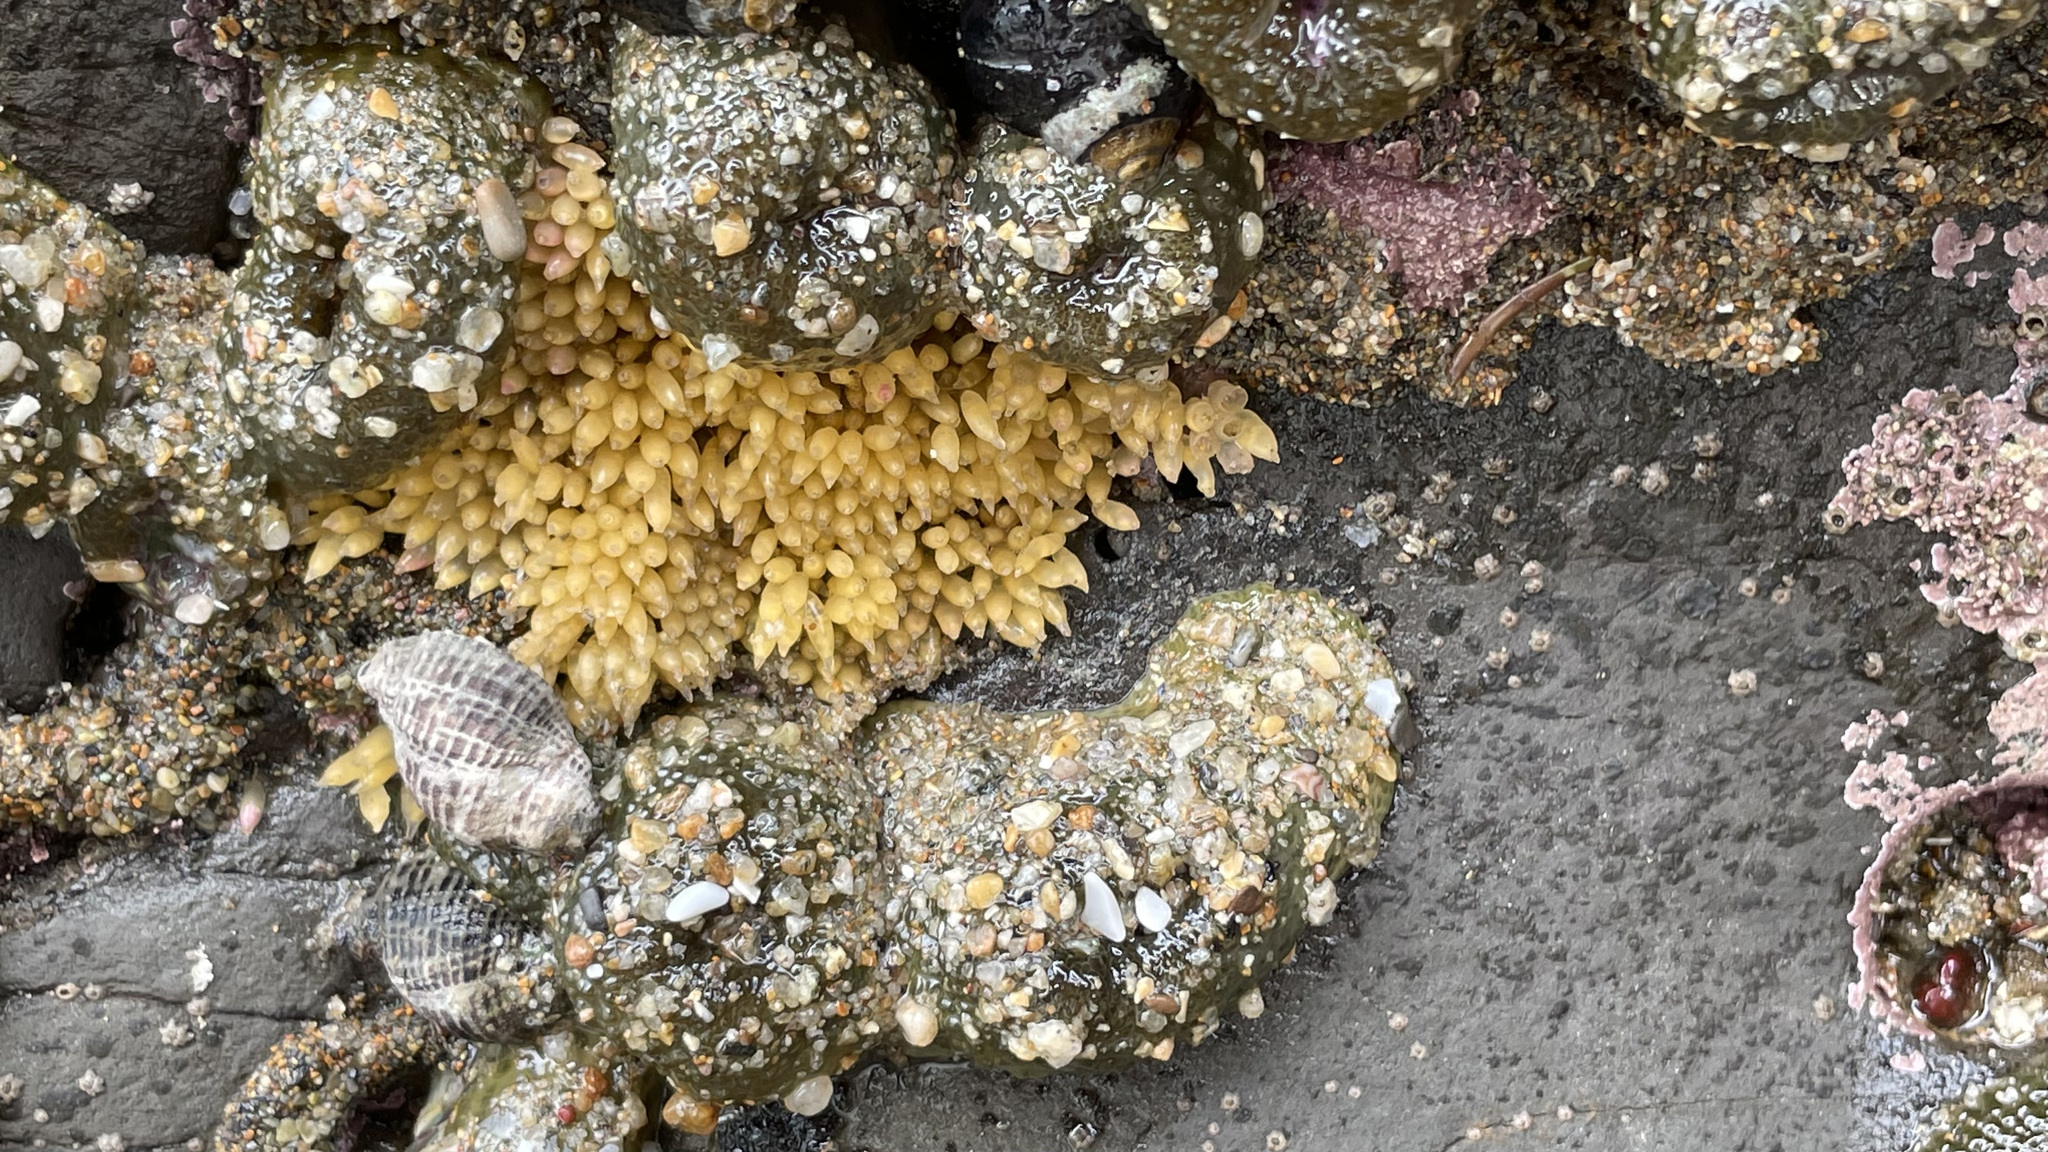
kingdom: Animalia
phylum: Cnidaria
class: Anthozoa
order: Actiniaria
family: Actiniidae
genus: Anthopleura
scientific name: Anthopleura elegantissima
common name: Clonal anemone
